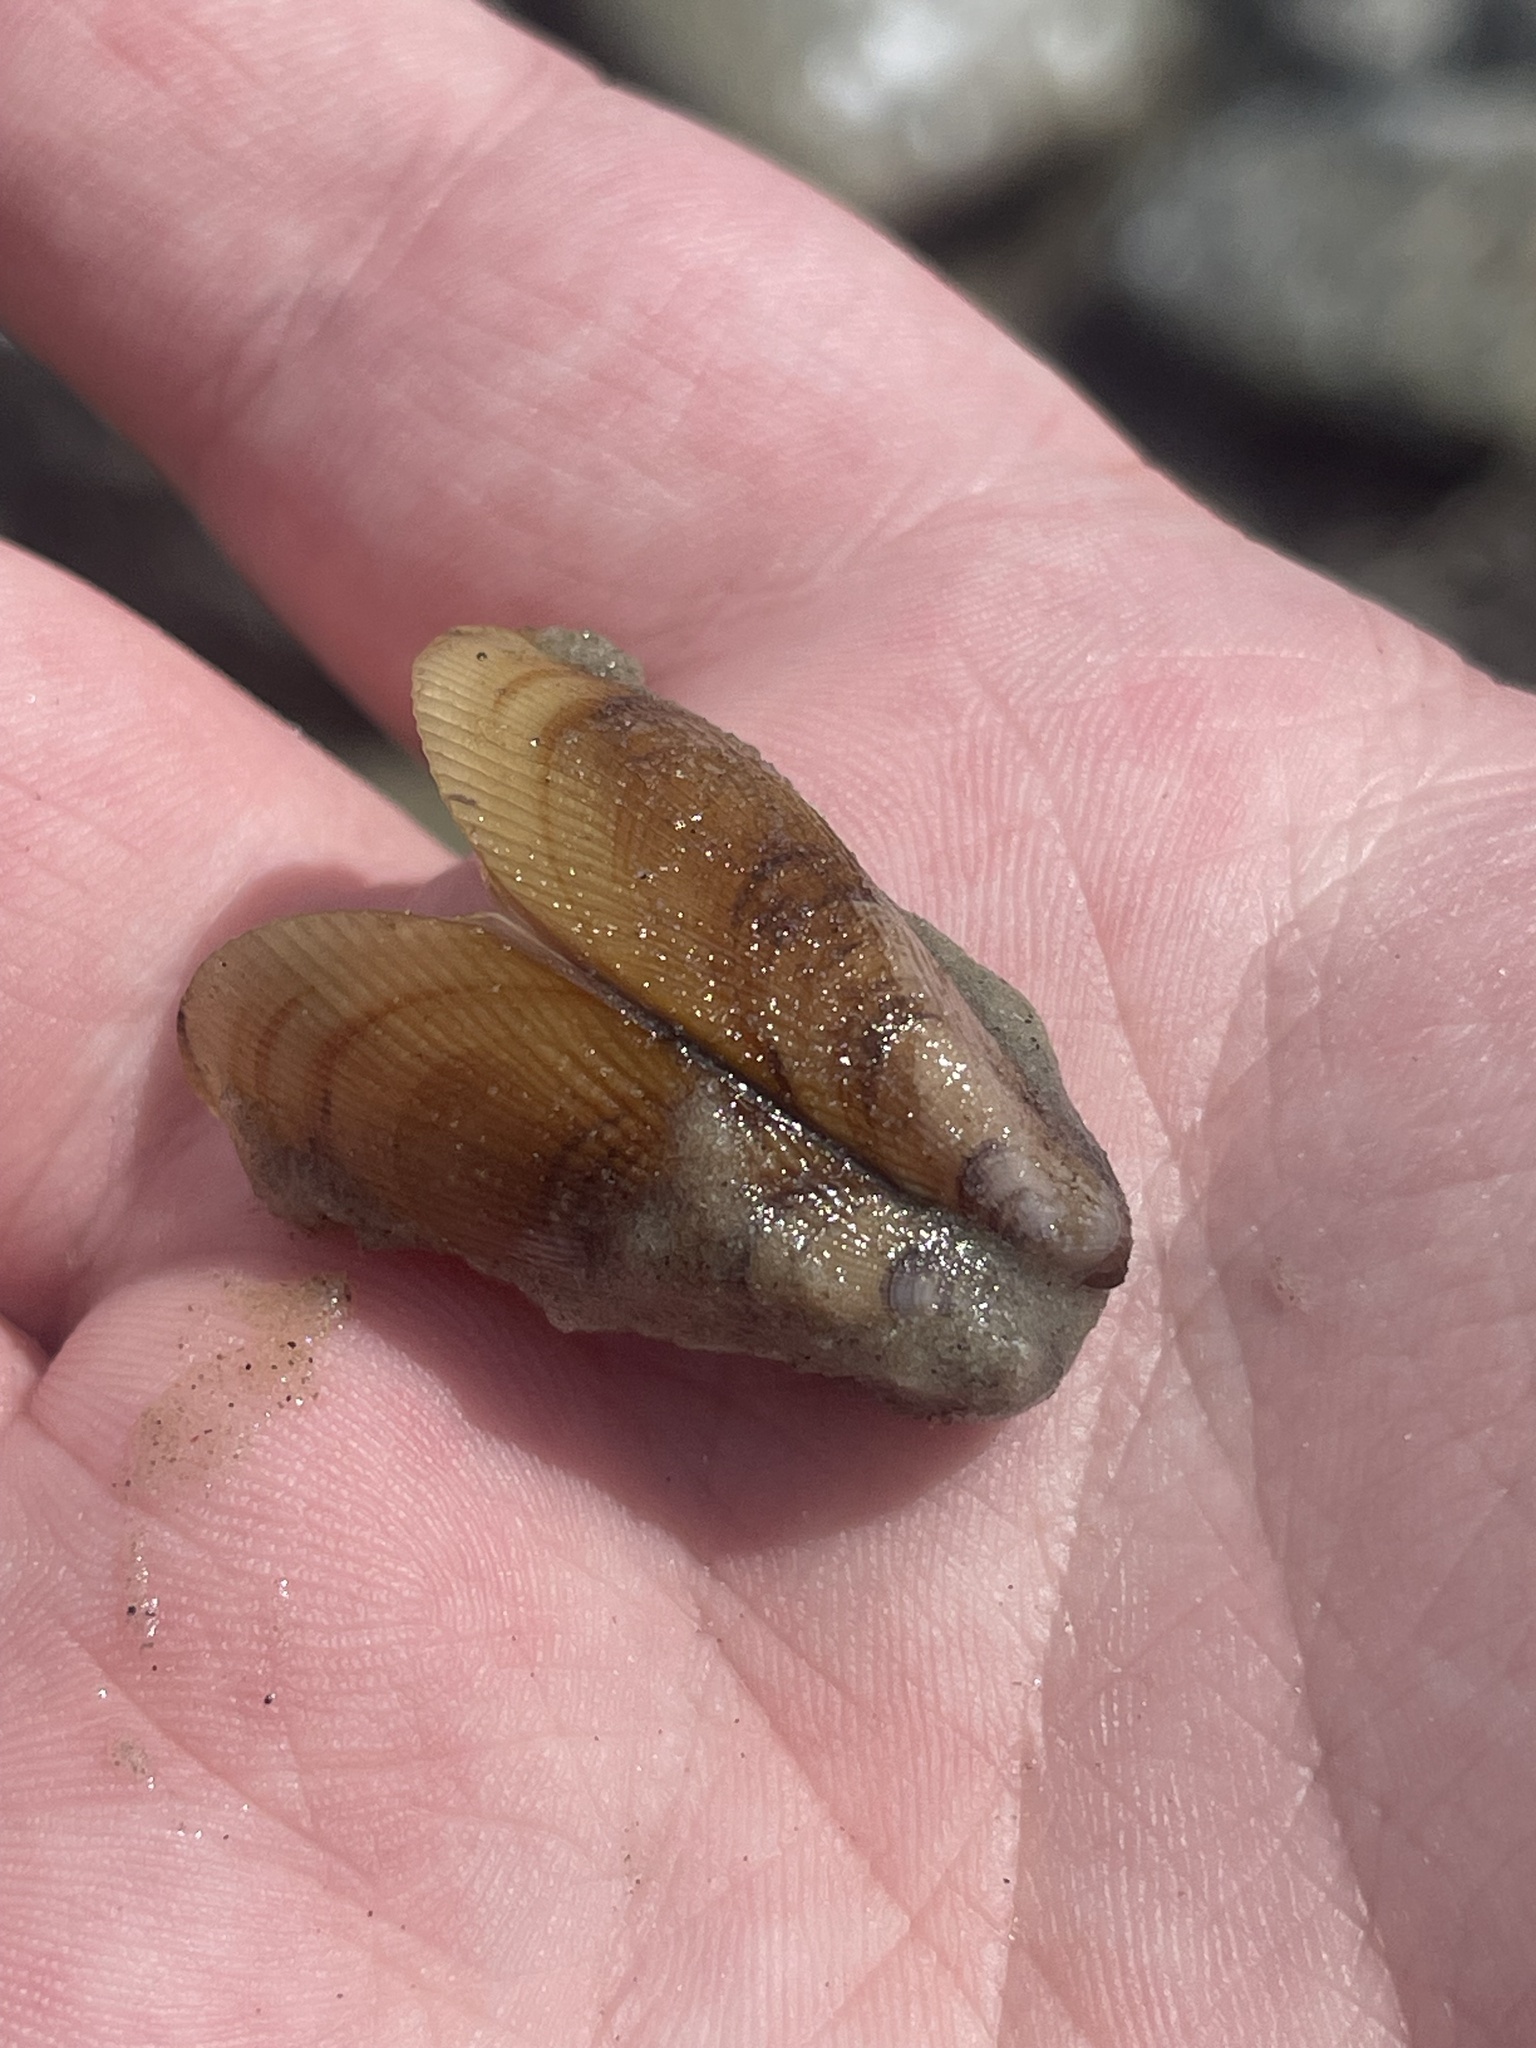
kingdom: Animalia
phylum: Mollusca
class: Bivalvia
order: Mytilida
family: Mytilidae
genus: Geukensia
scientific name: Geukensia demissa
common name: Ribbed mussel
